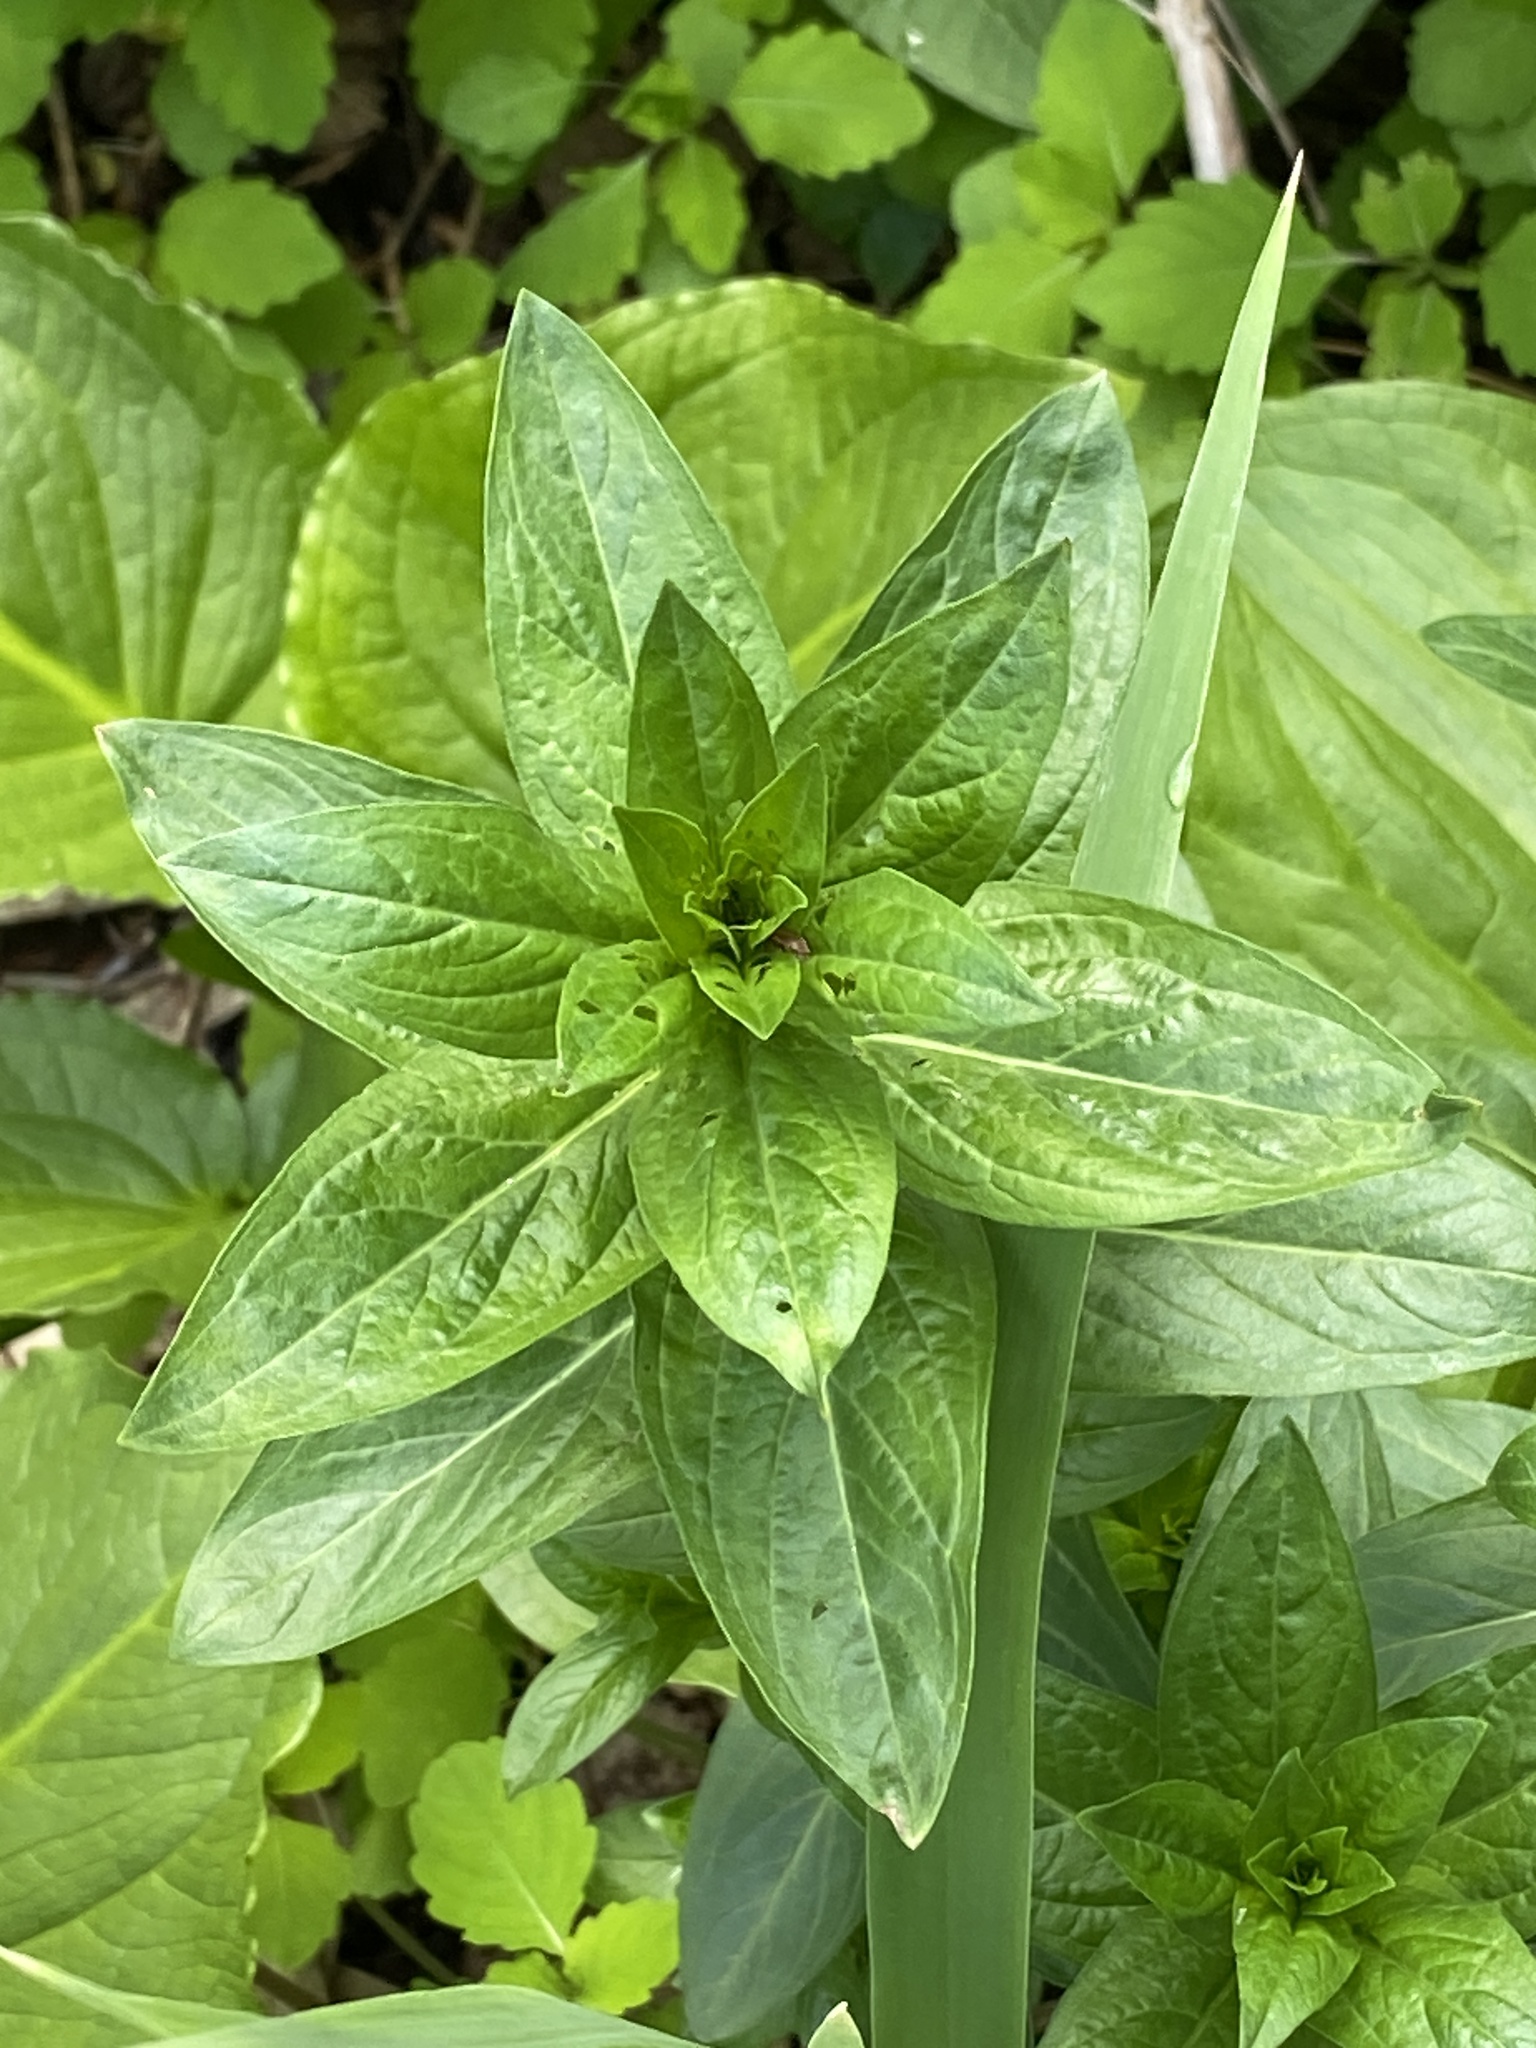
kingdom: Plantae
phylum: Tracheophyta
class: Magnoliopsida
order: Myrtales
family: Lythraceae
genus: Lythrum
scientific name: Lythrum salicaria
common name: Purple loosestrife
